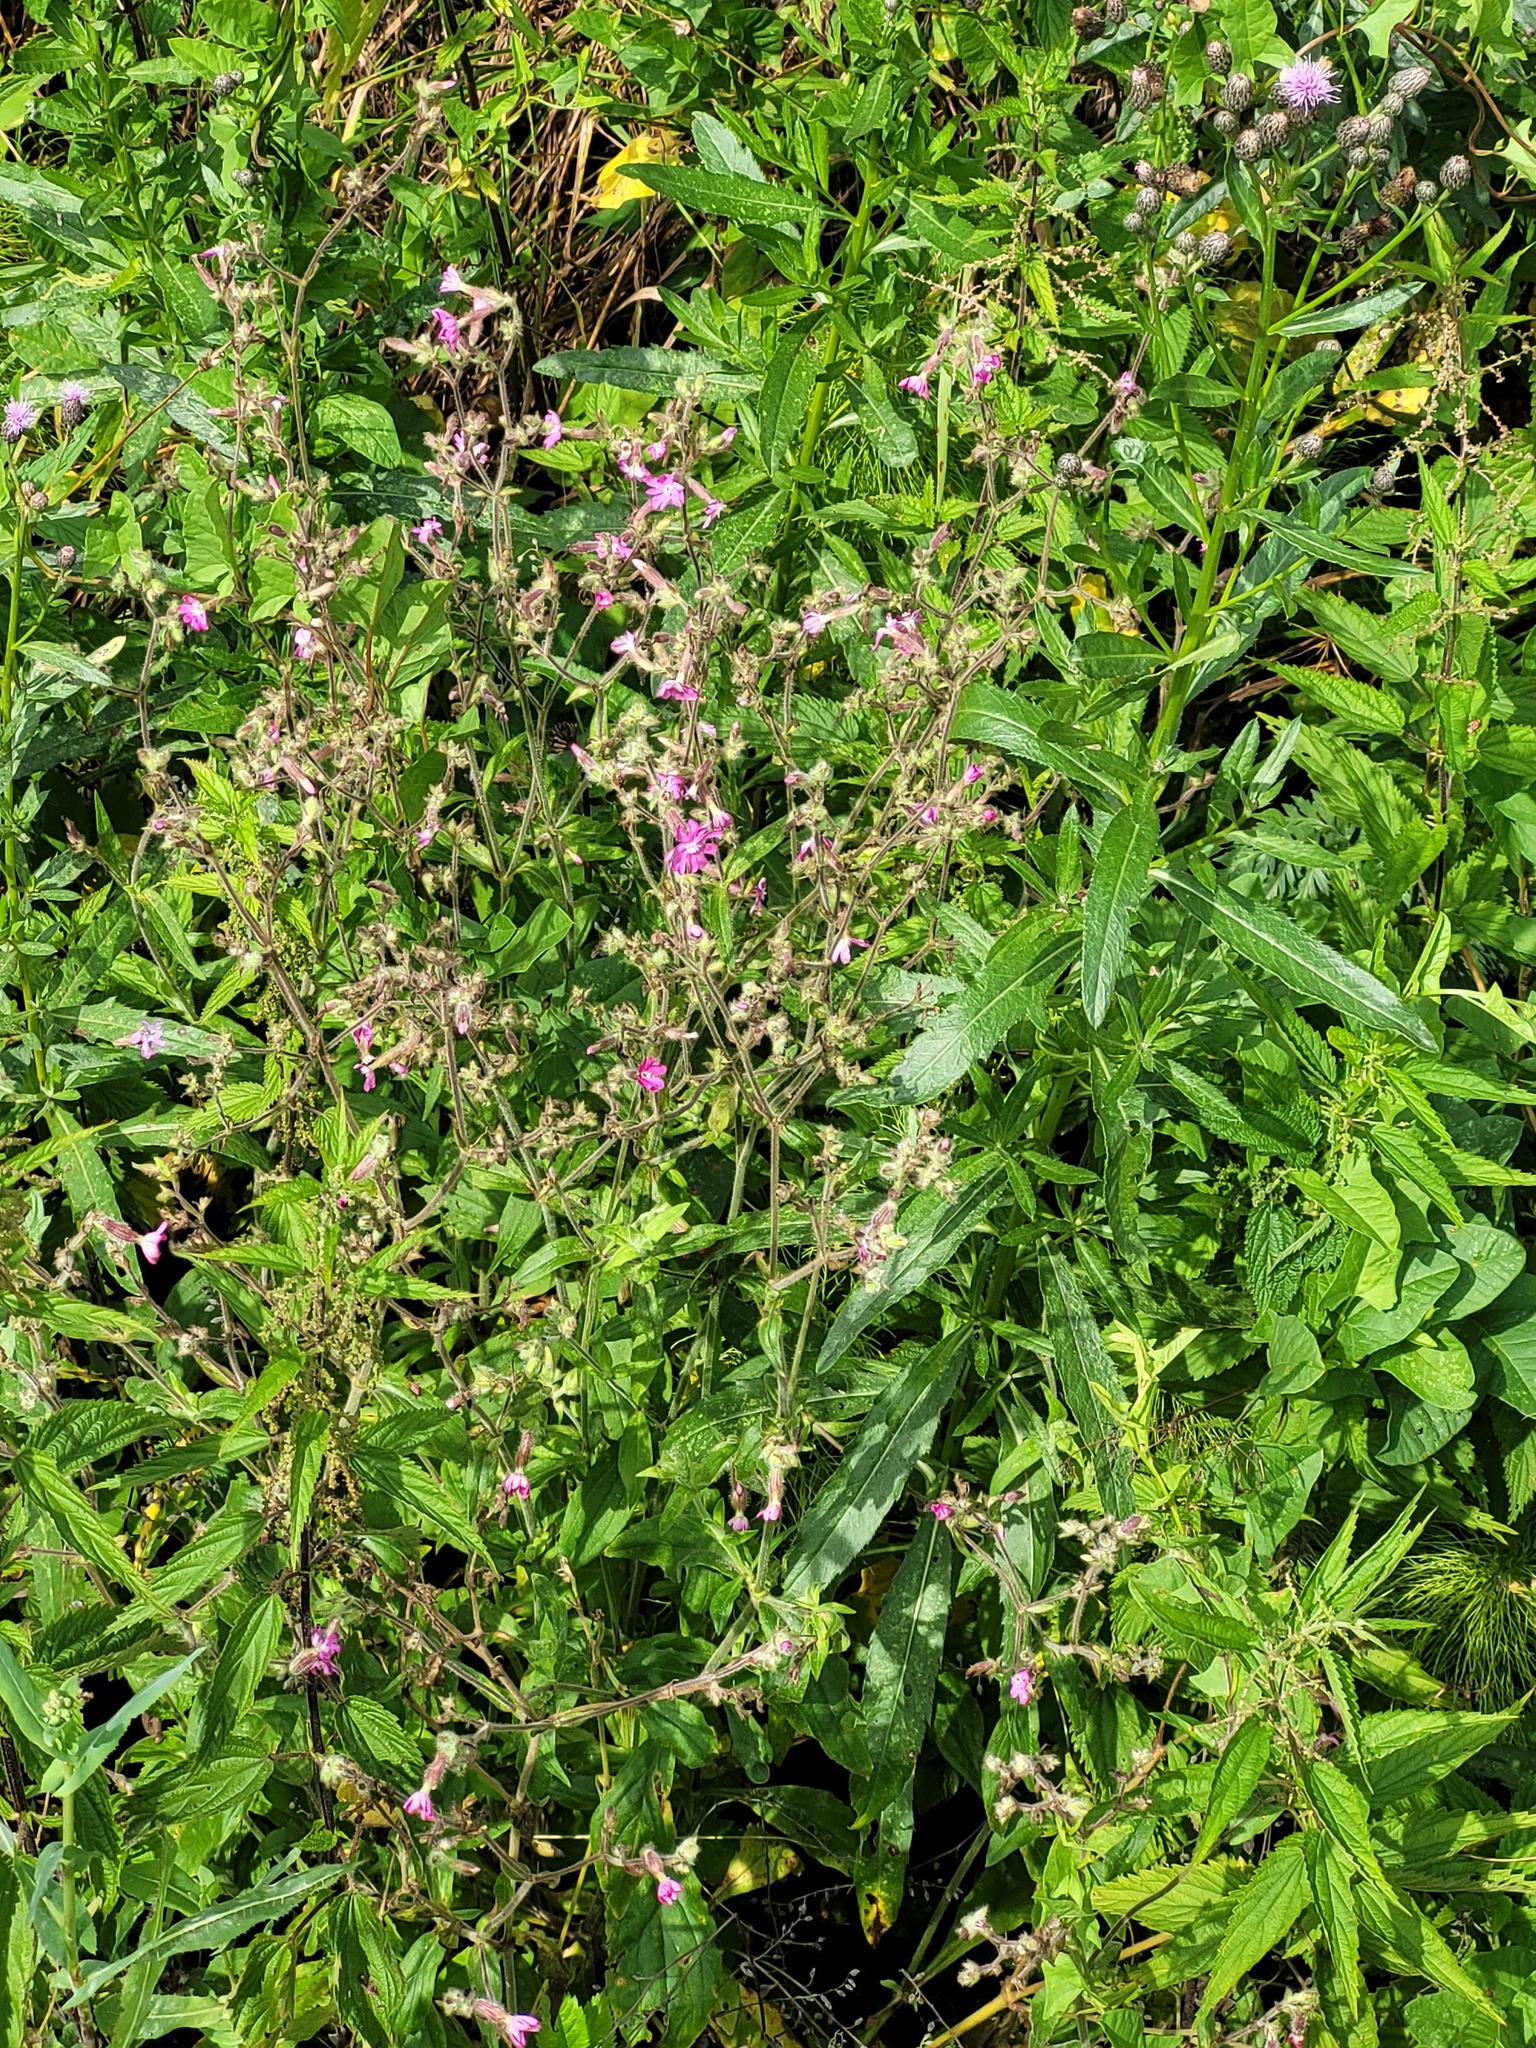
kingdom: Plantae
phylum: Tracheophyta
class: Magnoliopsida
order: Caryophyllales
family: Caryophyllaceae
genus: Silene
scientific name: Silene dioica
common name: Red campion
